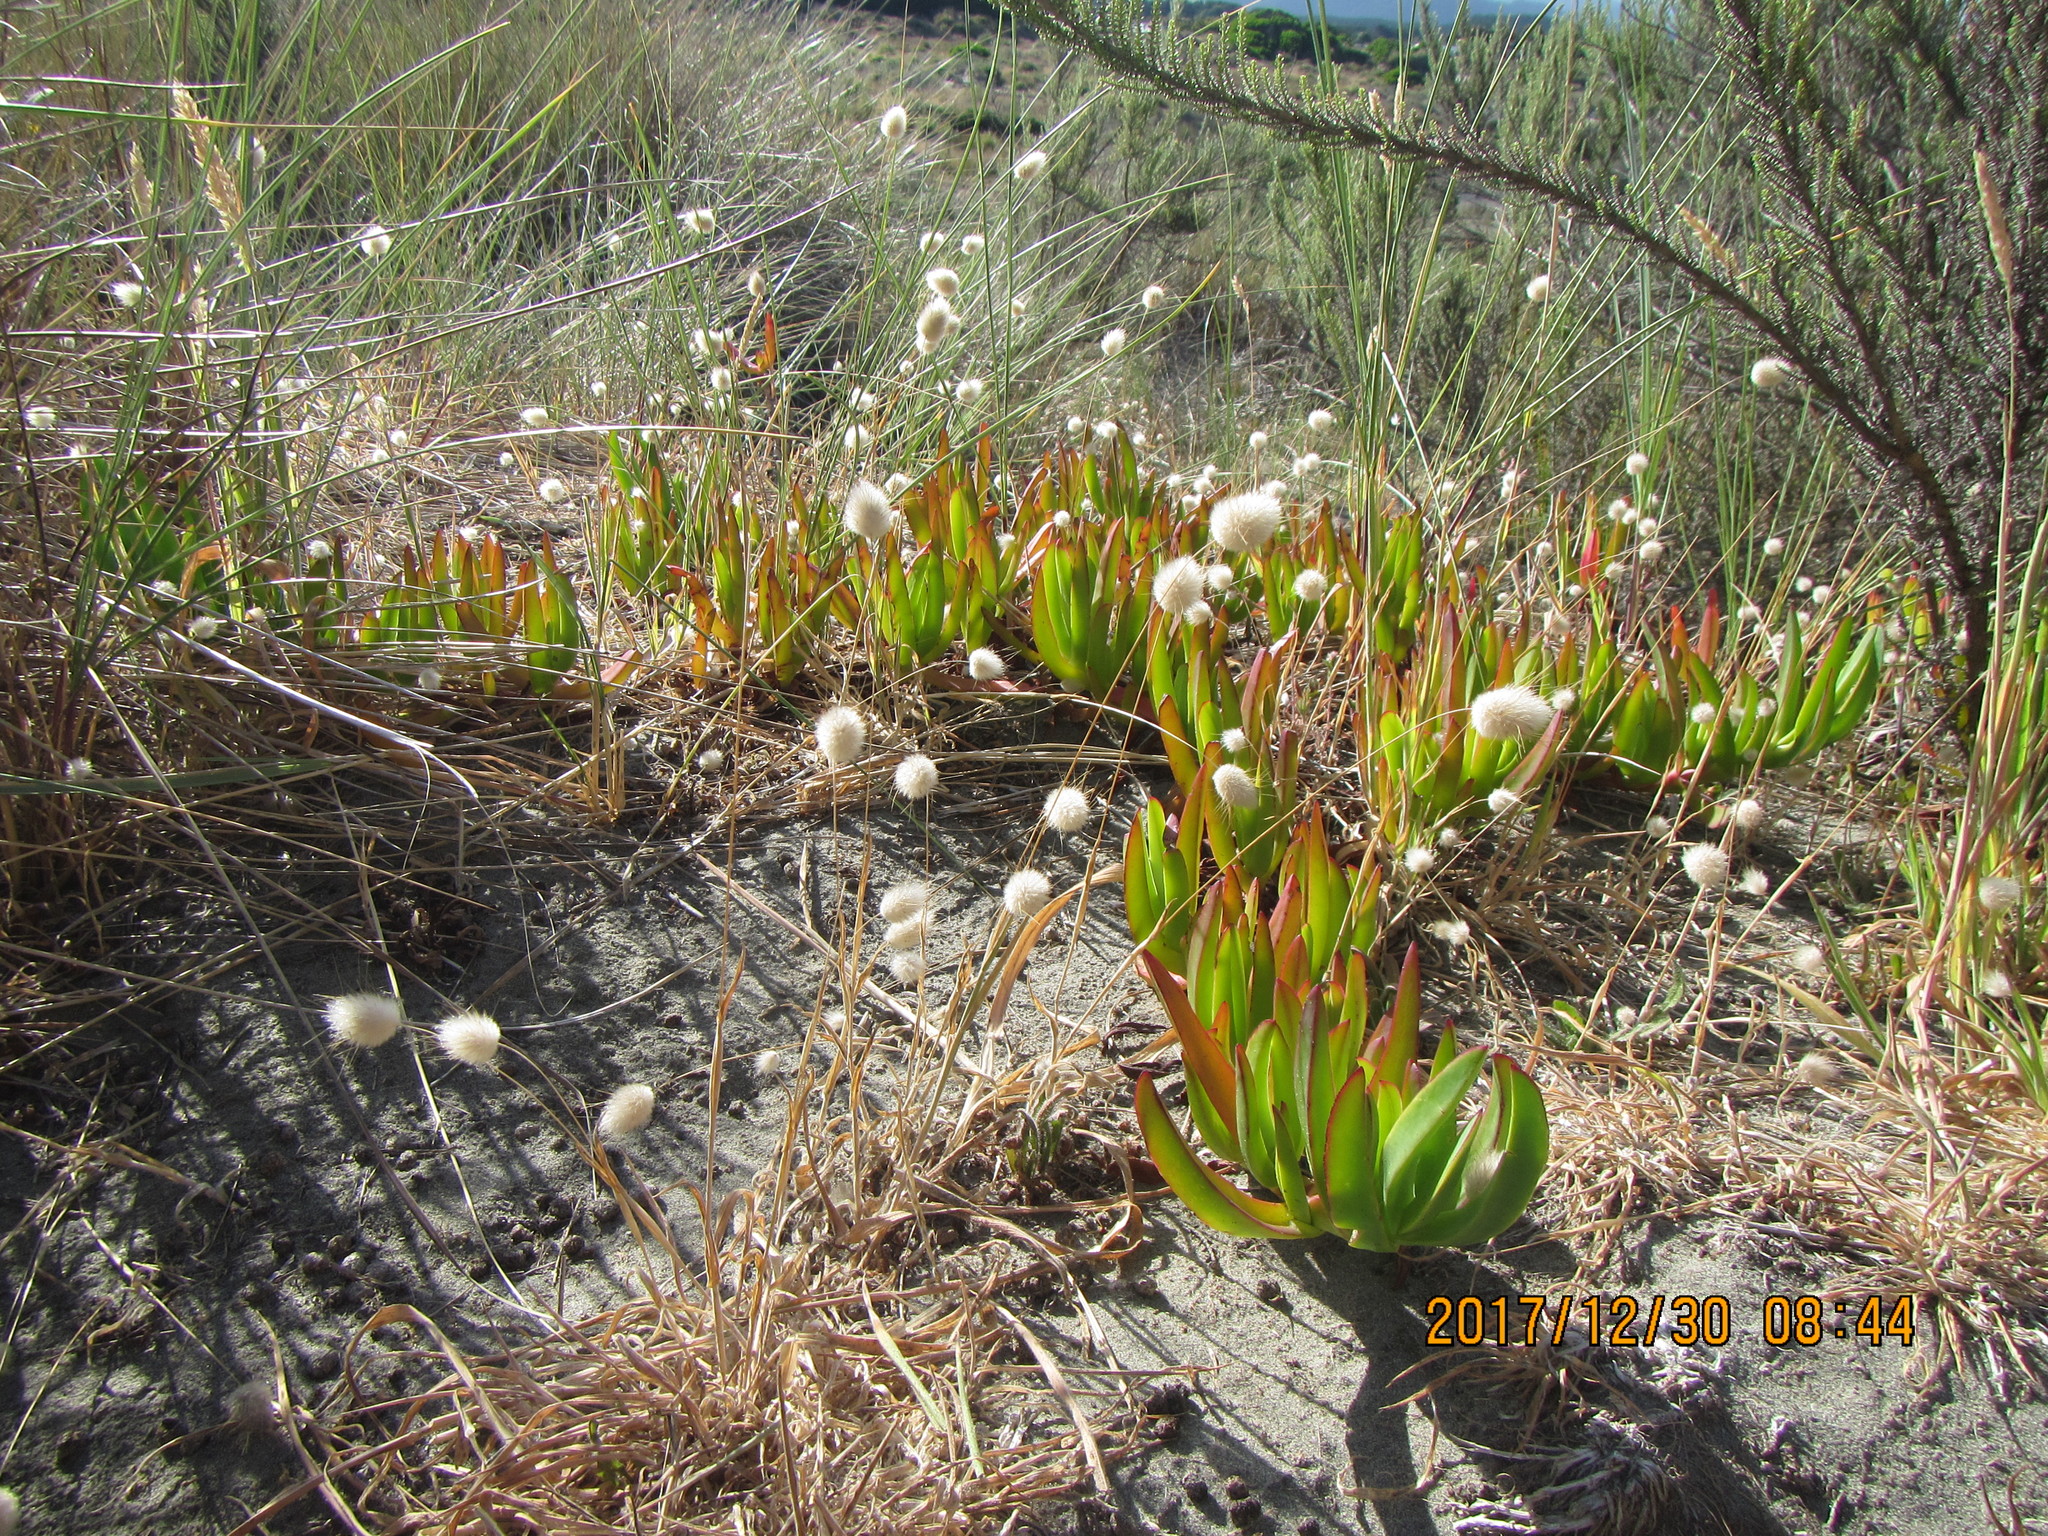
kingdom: Plantae
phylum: Tracheophyta
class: Liliopsida
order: Poales
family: Poaceae
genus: Lagurus
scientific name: Lagurus ovatus
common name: Hare's-tail
